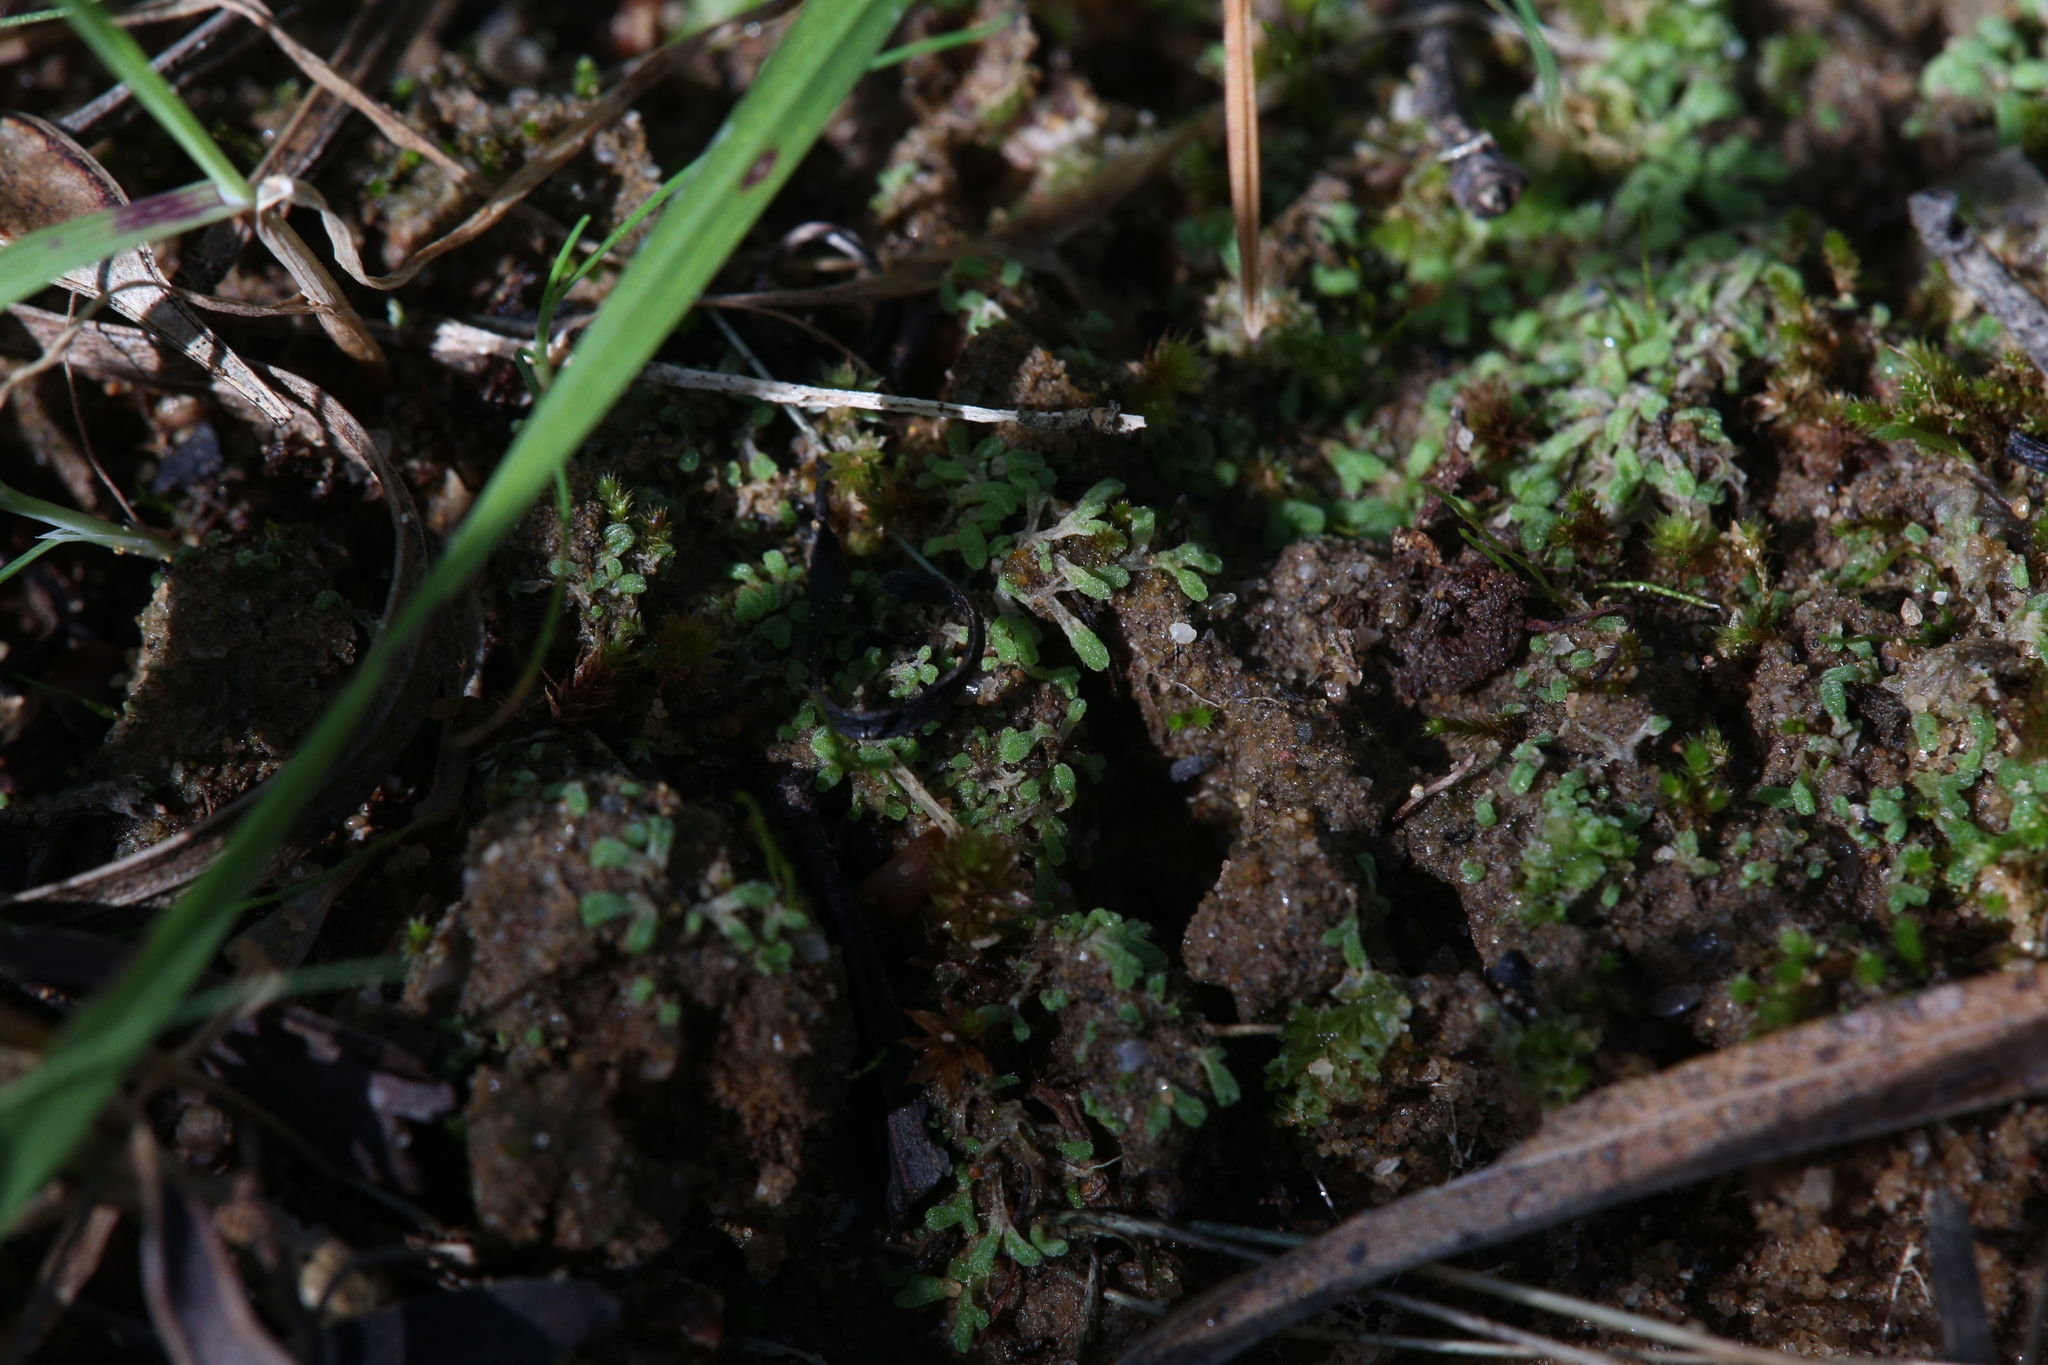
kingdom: Plantae
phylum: Marchantiophyta
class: Marchantiopsida
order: Marchantiales
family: Ricciaceae
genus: Riccia
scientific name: Riccia subbifurca
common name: Least crystalwort
